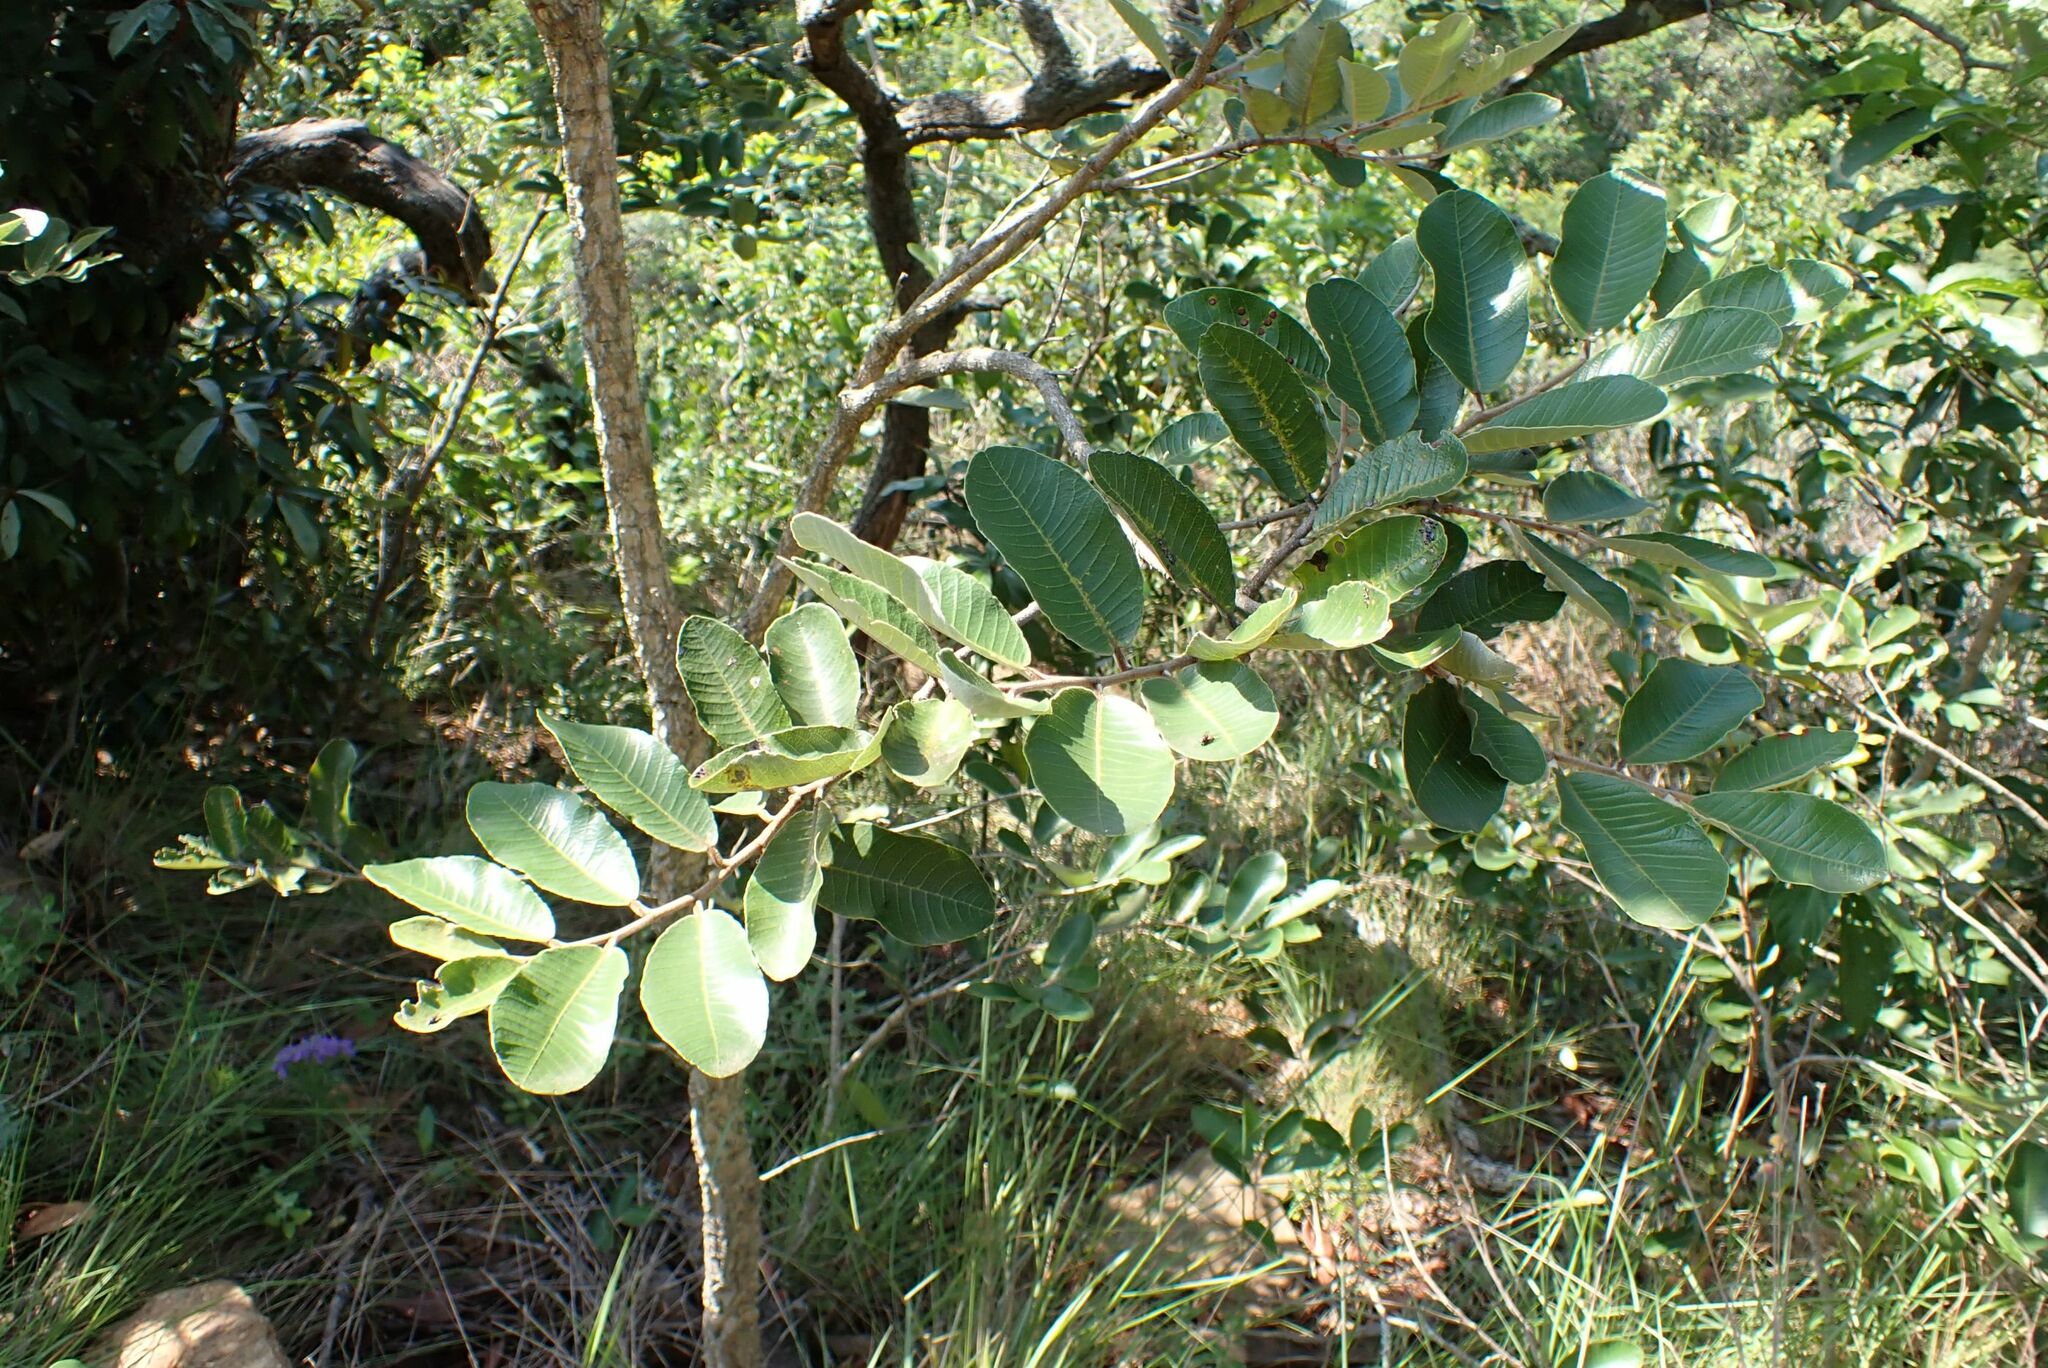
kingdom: Plantae
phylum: Tracheophyta
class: Magnoliopsida
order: Malpighiales
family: Chrysobalanaceae
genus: Parinari
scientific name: Parinari curatellifolia
